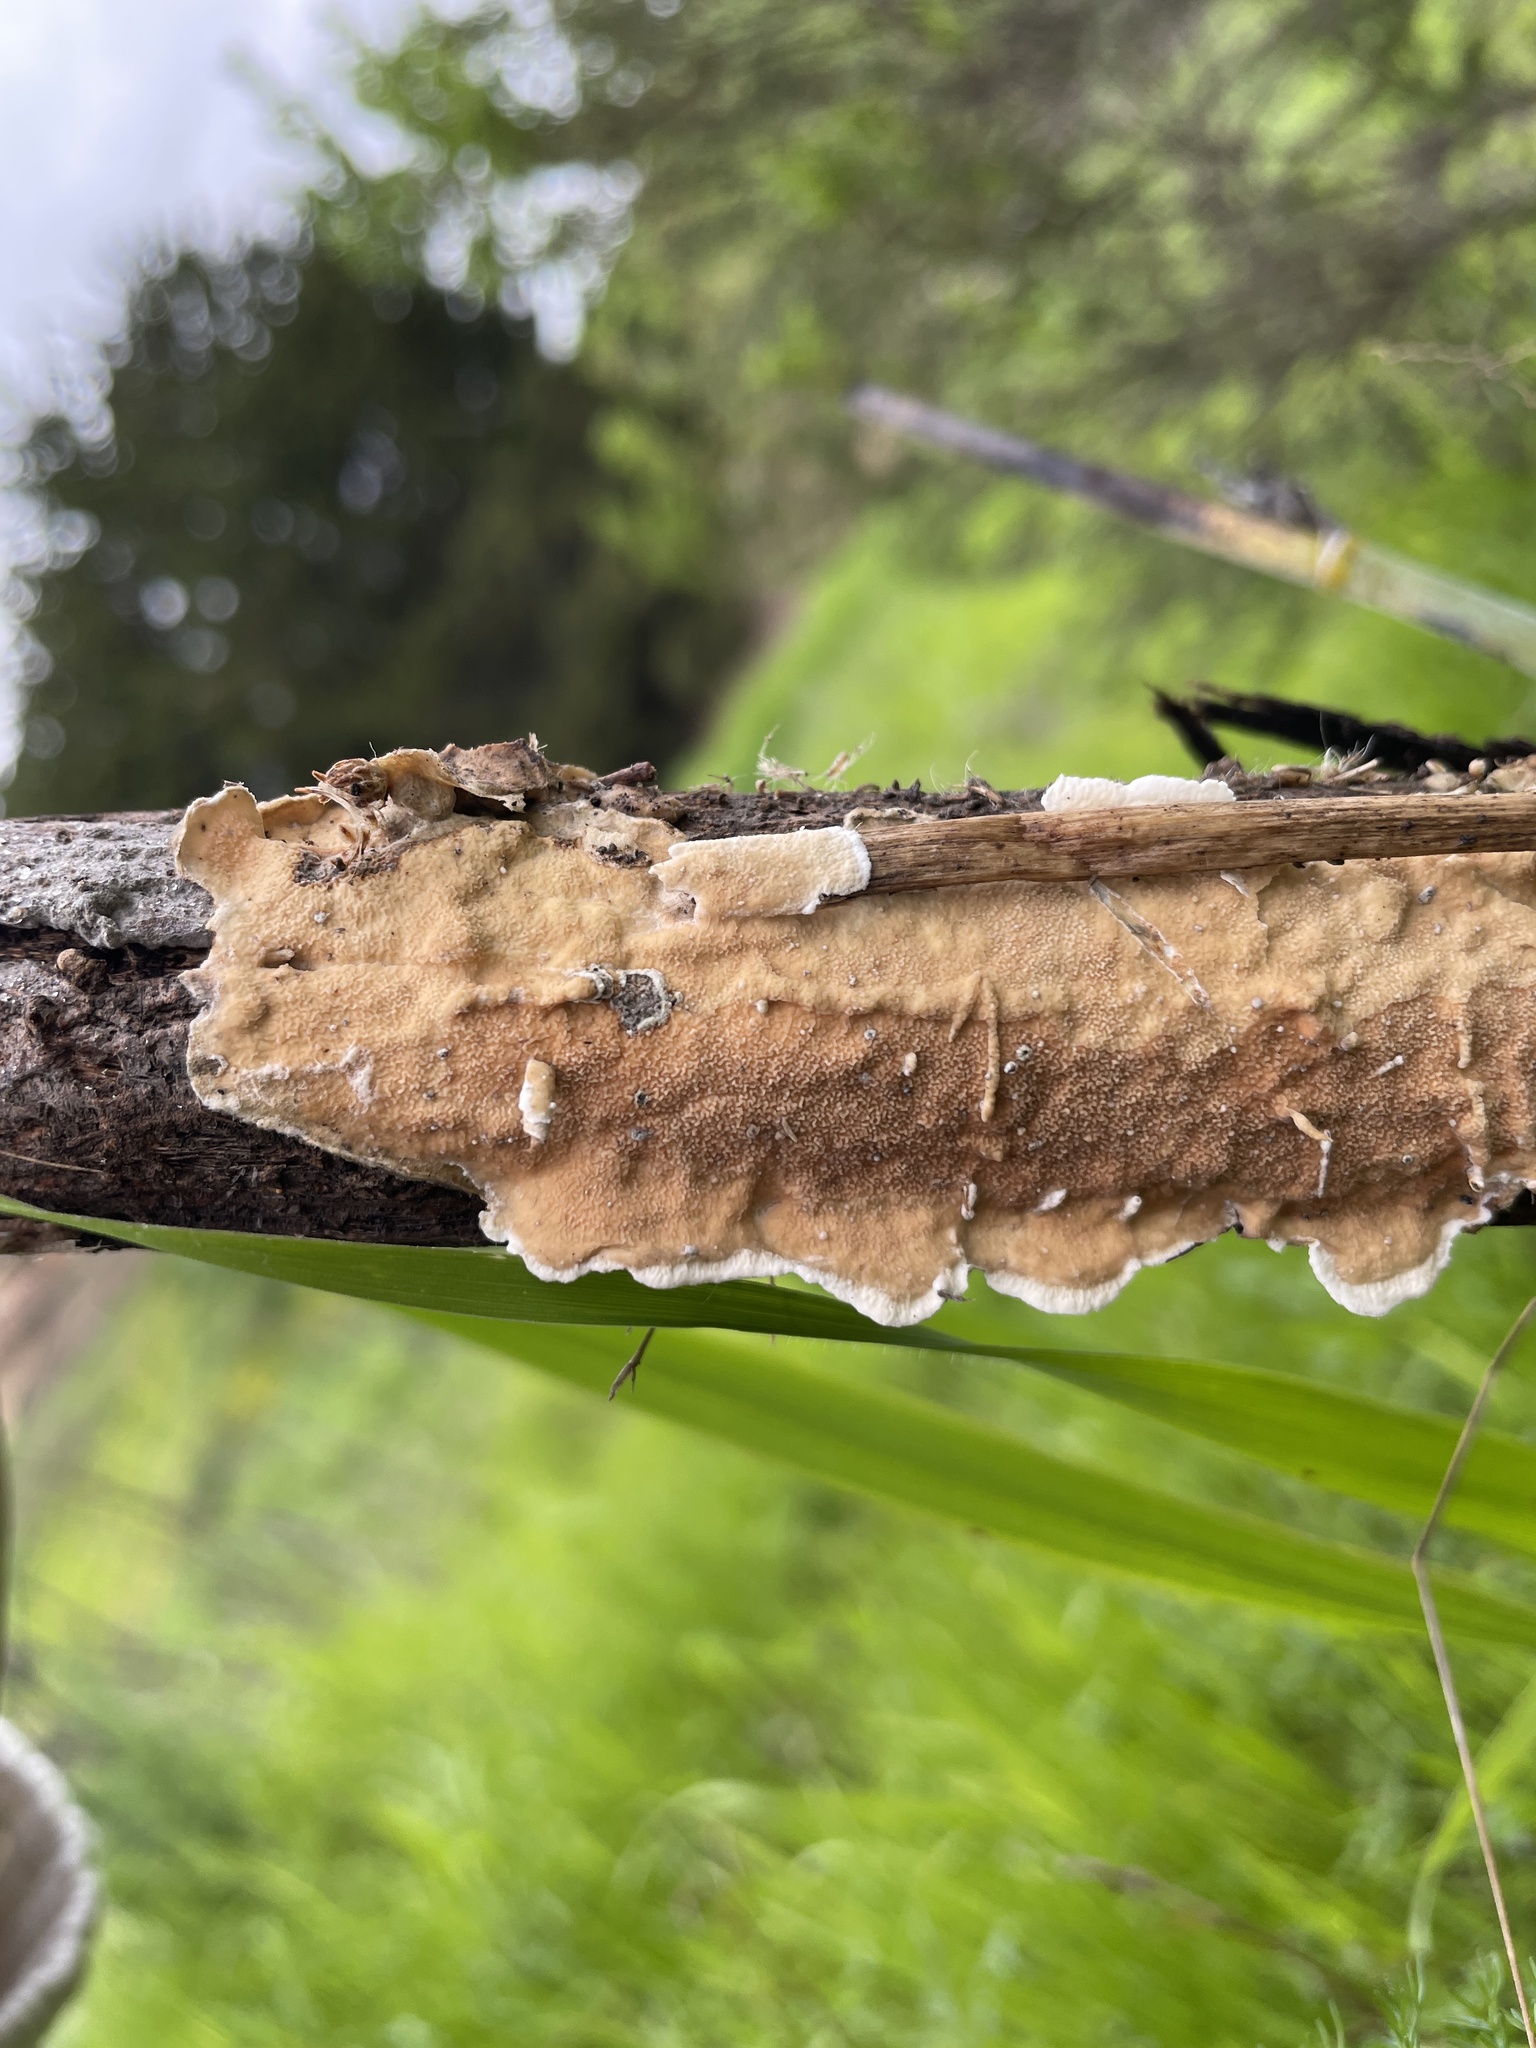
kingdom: Fungi
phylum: Basidiomycota
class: Agaricomycetes
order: Polyporales
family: Irpicaceae
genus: Byssomerulius
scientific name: Byssomerulius corium
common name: Netted crust
